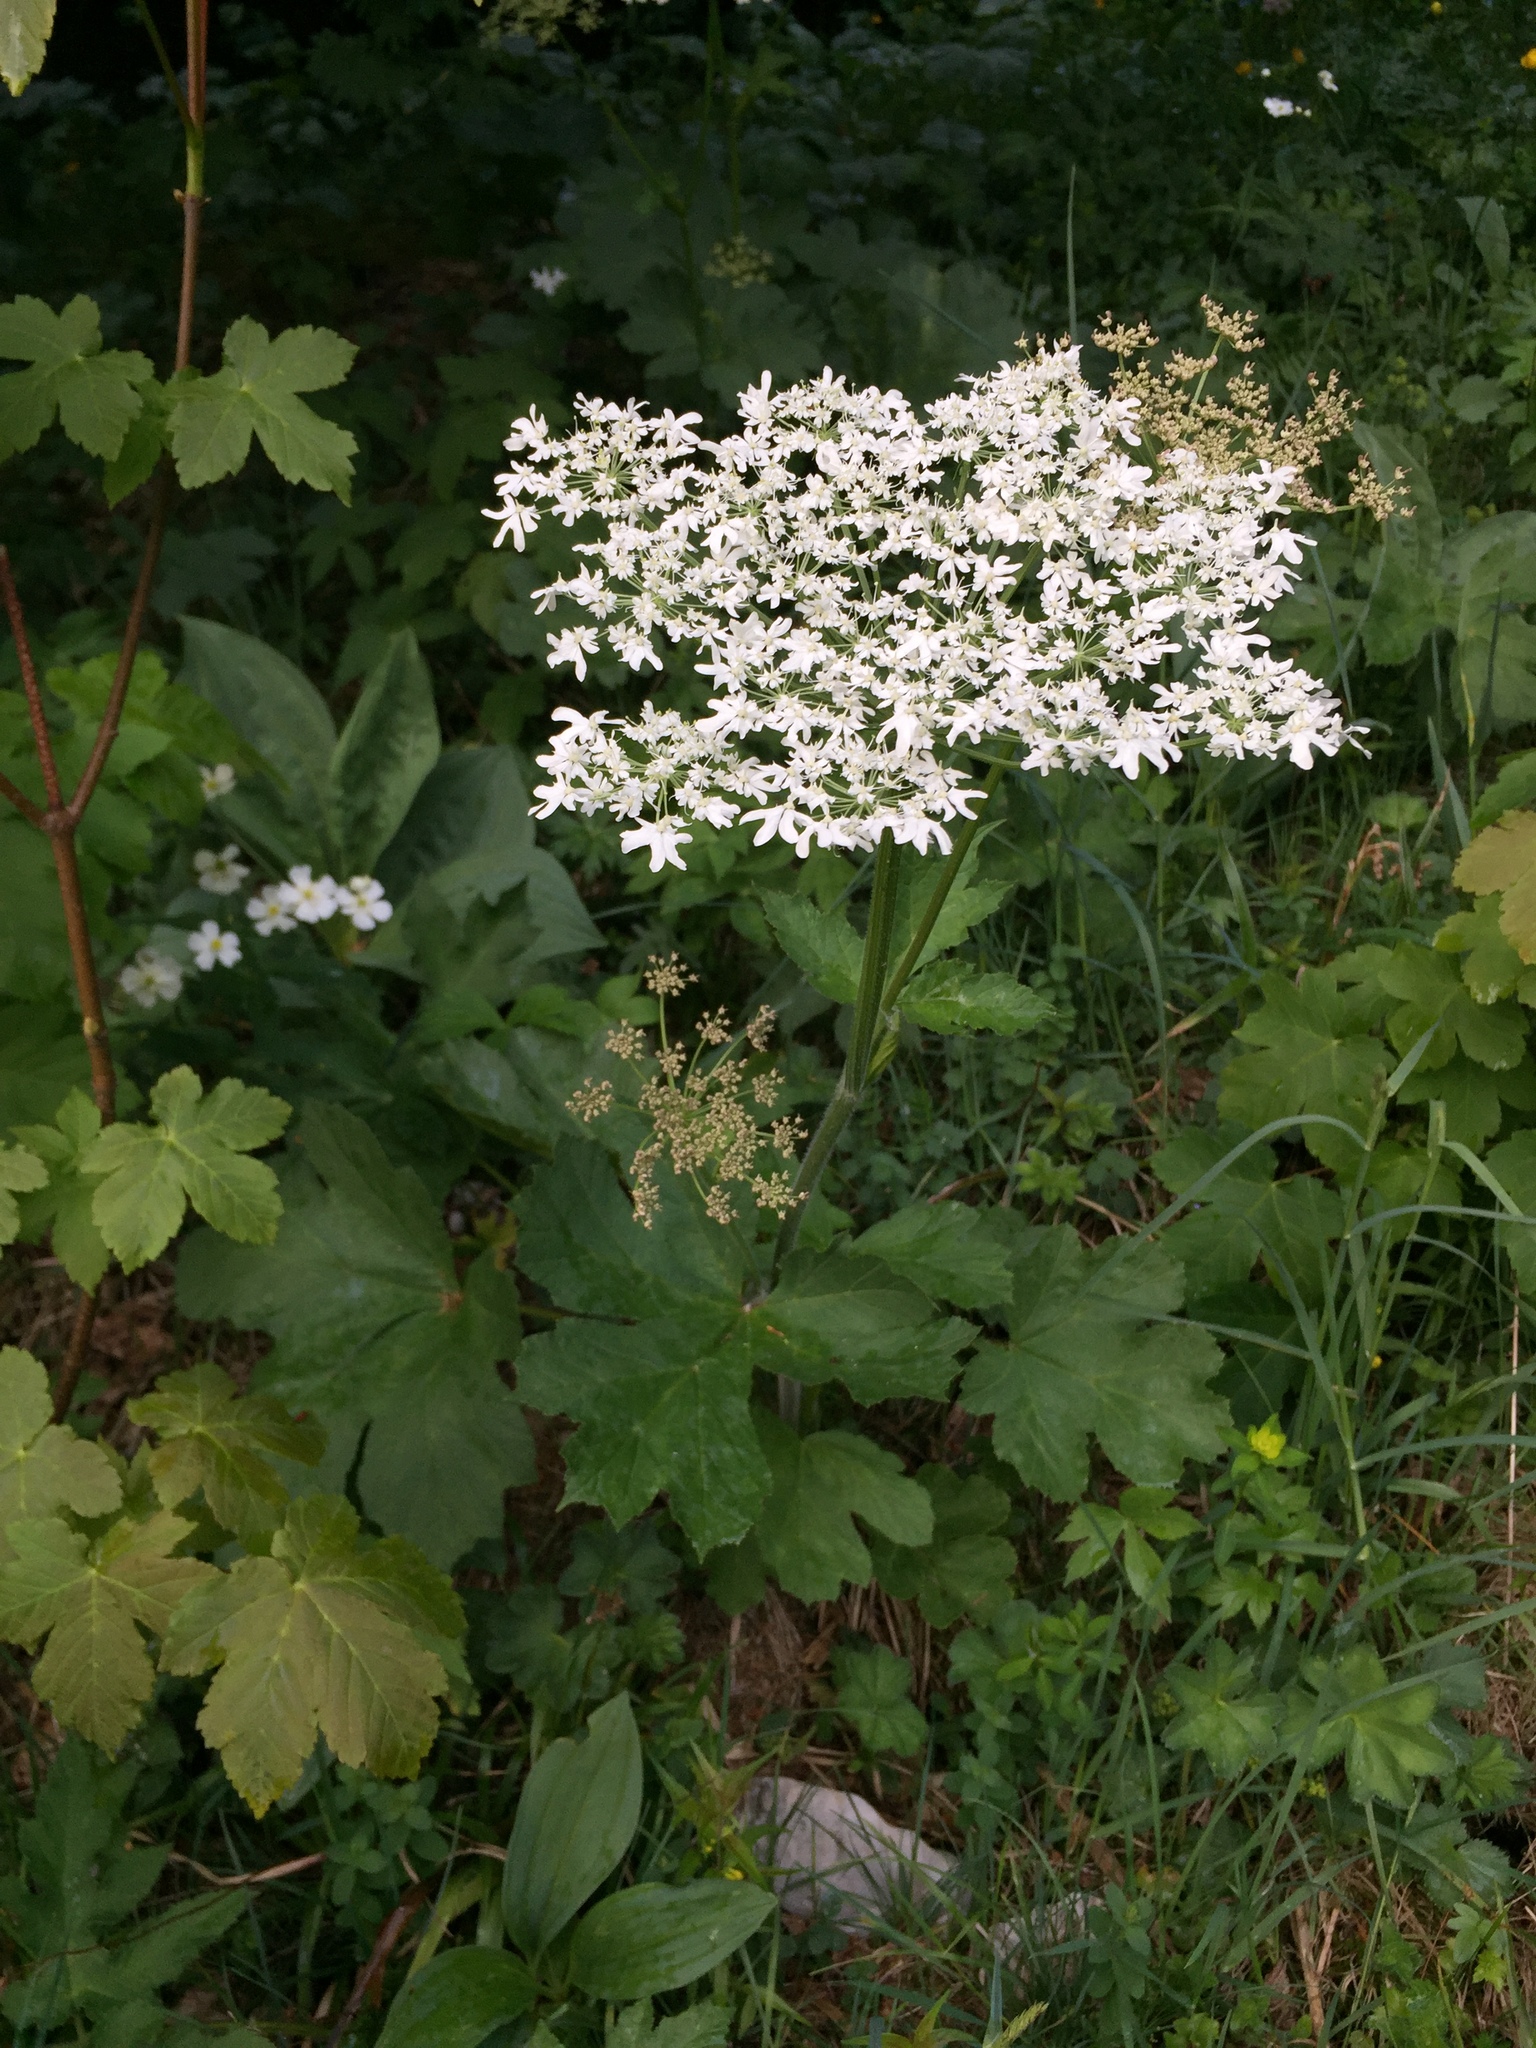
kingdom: Plantae
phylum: Tracheophyta
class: Magnoliopsida
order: Apiales
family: Apiaceae
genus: Heracleum
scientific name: Heracleum sphondylium
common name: Hogweed
